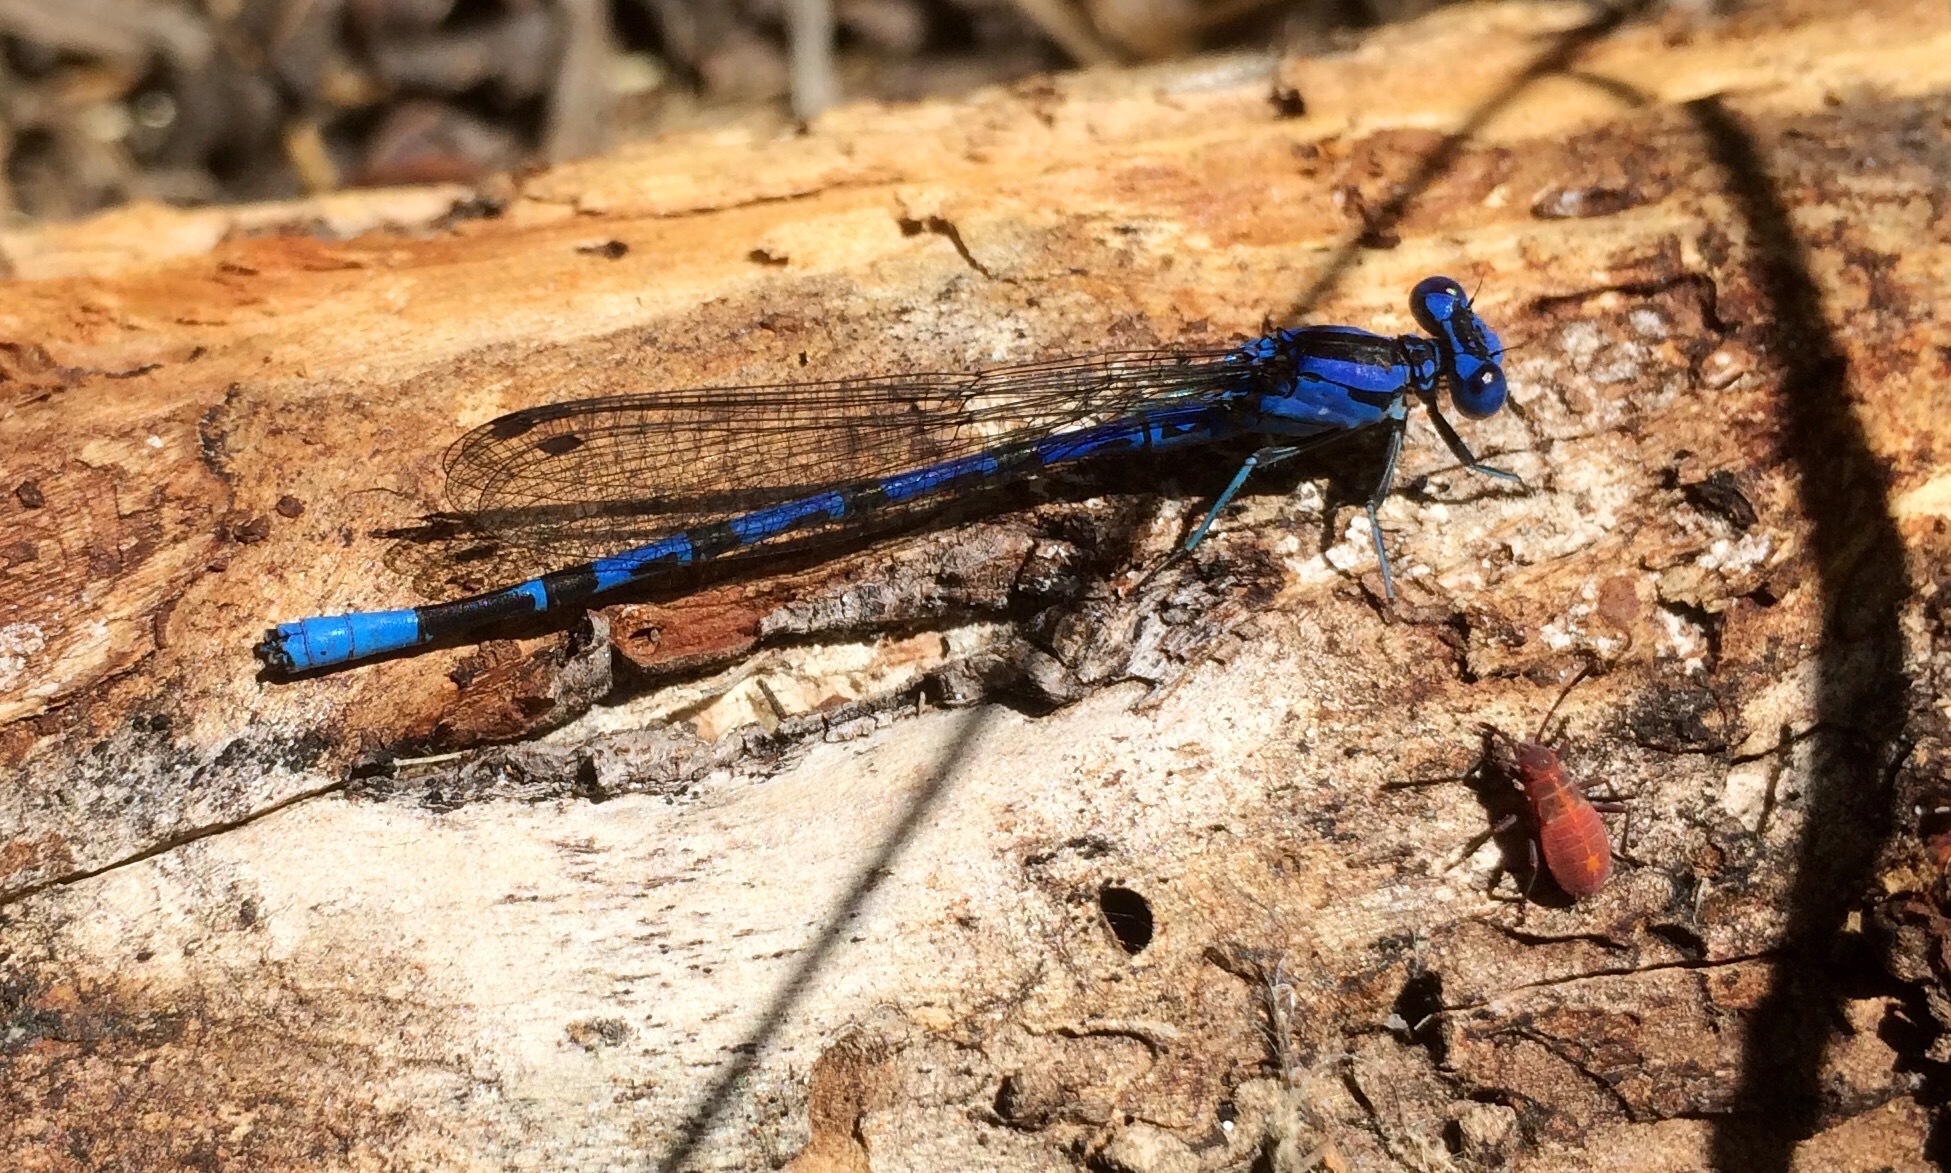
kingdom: Animalia
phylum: Arthropoda
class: Insecta
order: Odonata
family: Coenagrionidae
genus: Argia
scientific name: Argia vivida
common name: Vivid dancer
